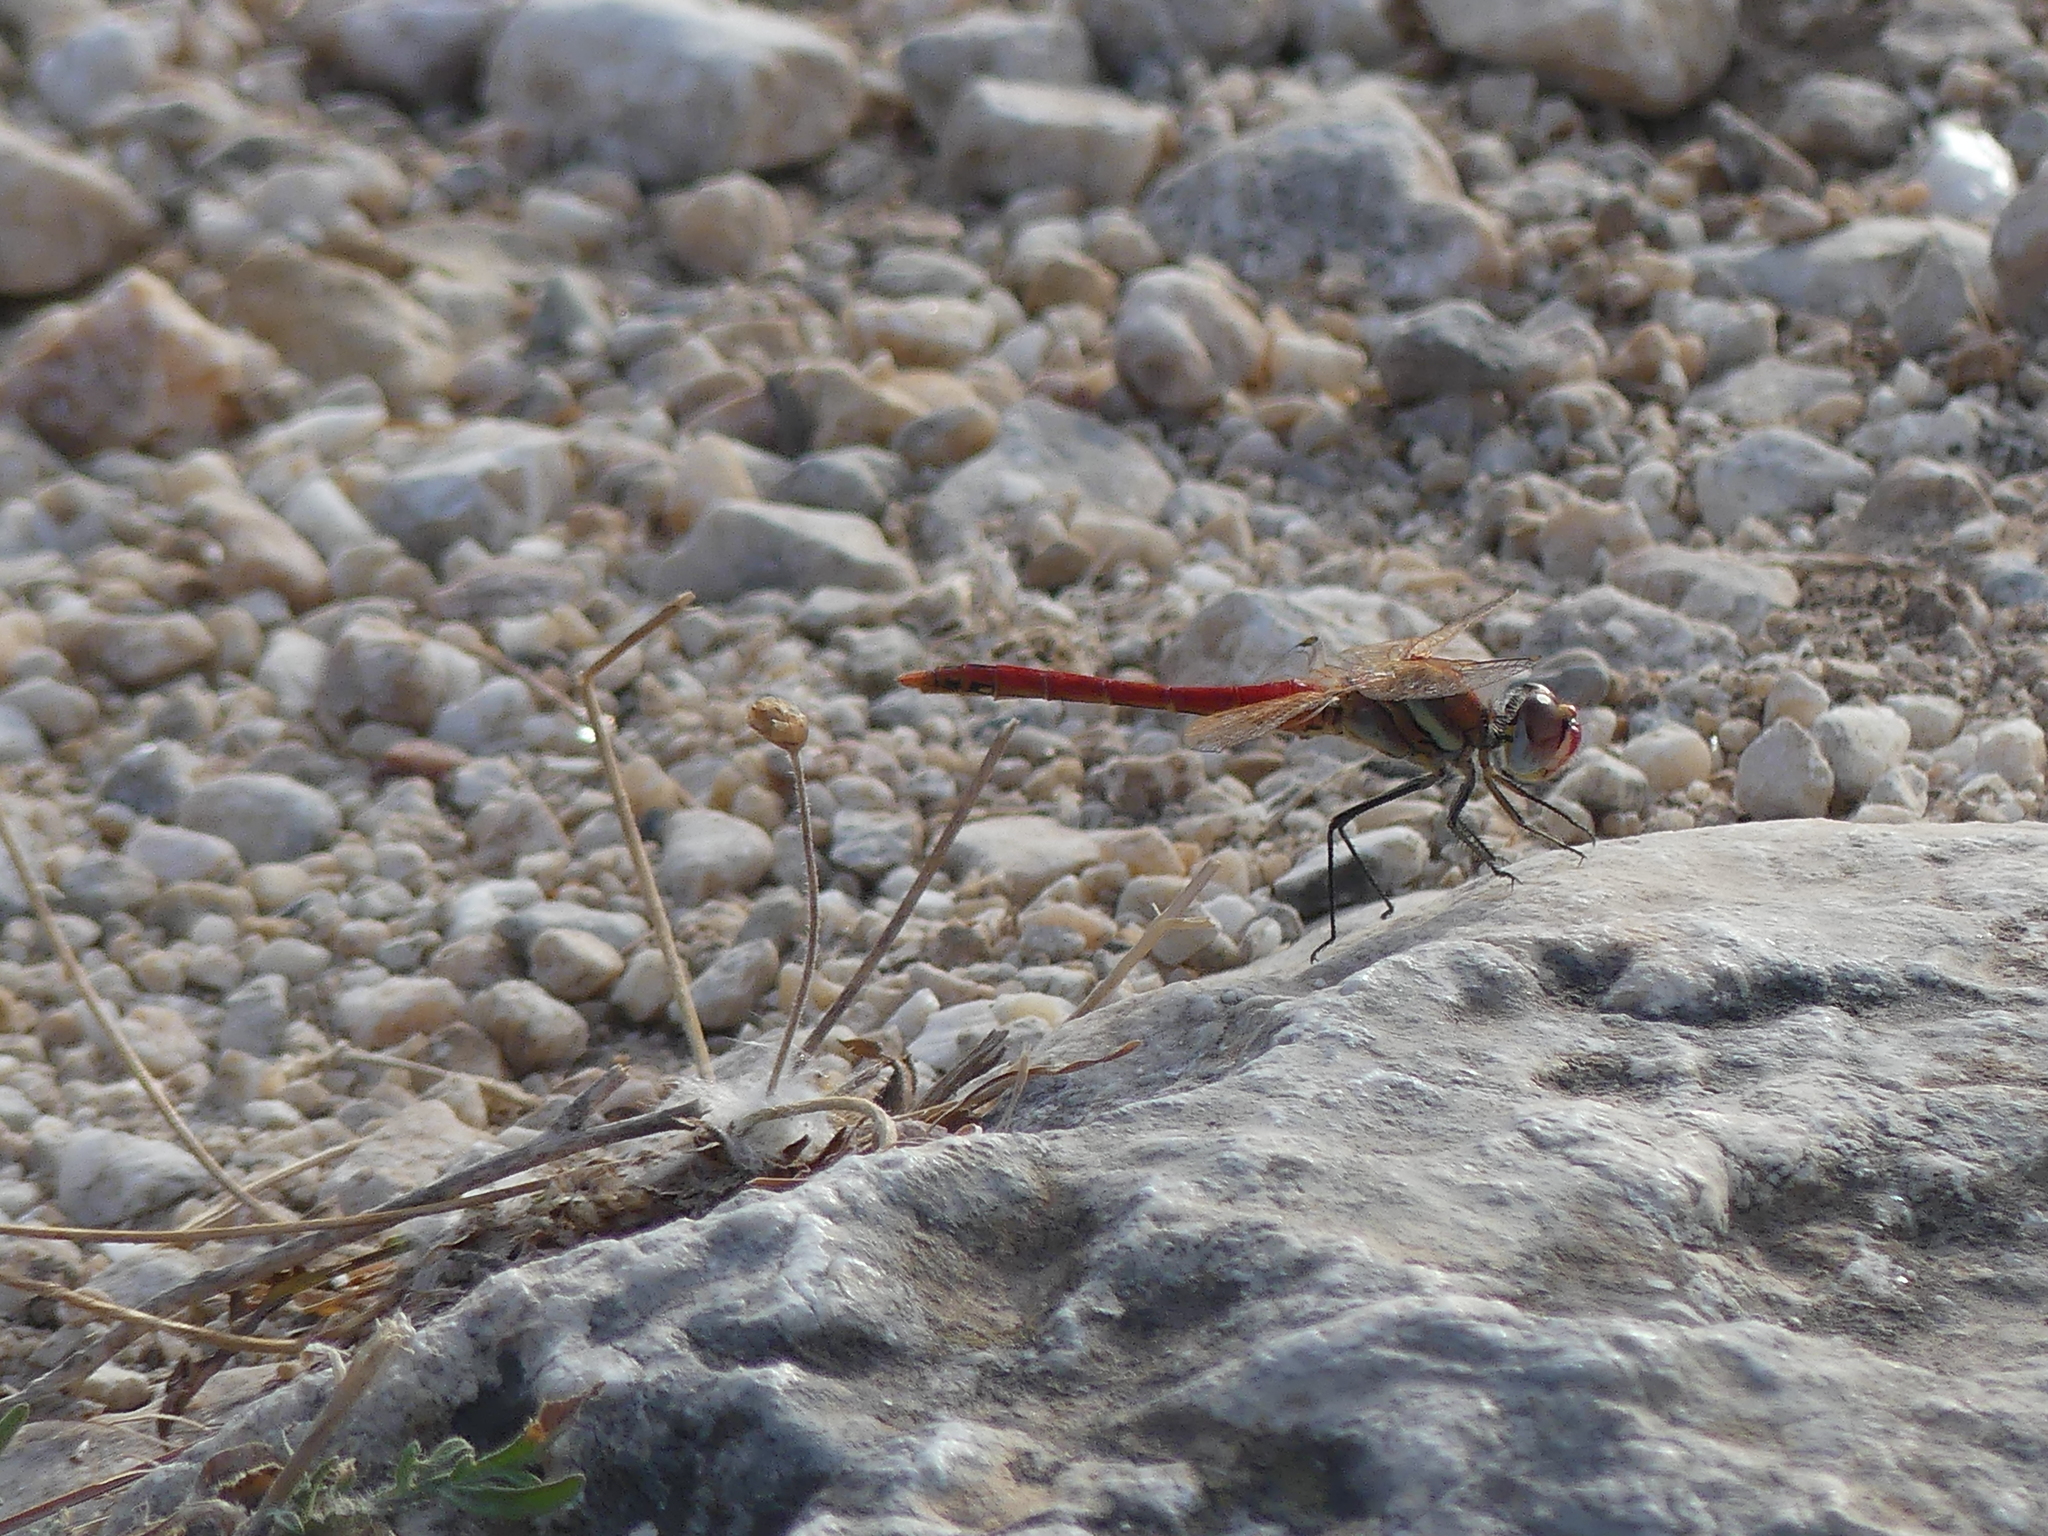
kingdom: Animalia
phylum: Arthropoda
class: Insecta
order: Odonata
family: Libellulidae
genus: Sympetrum
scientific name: Sympetrum fonscolombii
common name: Red-veined darter
